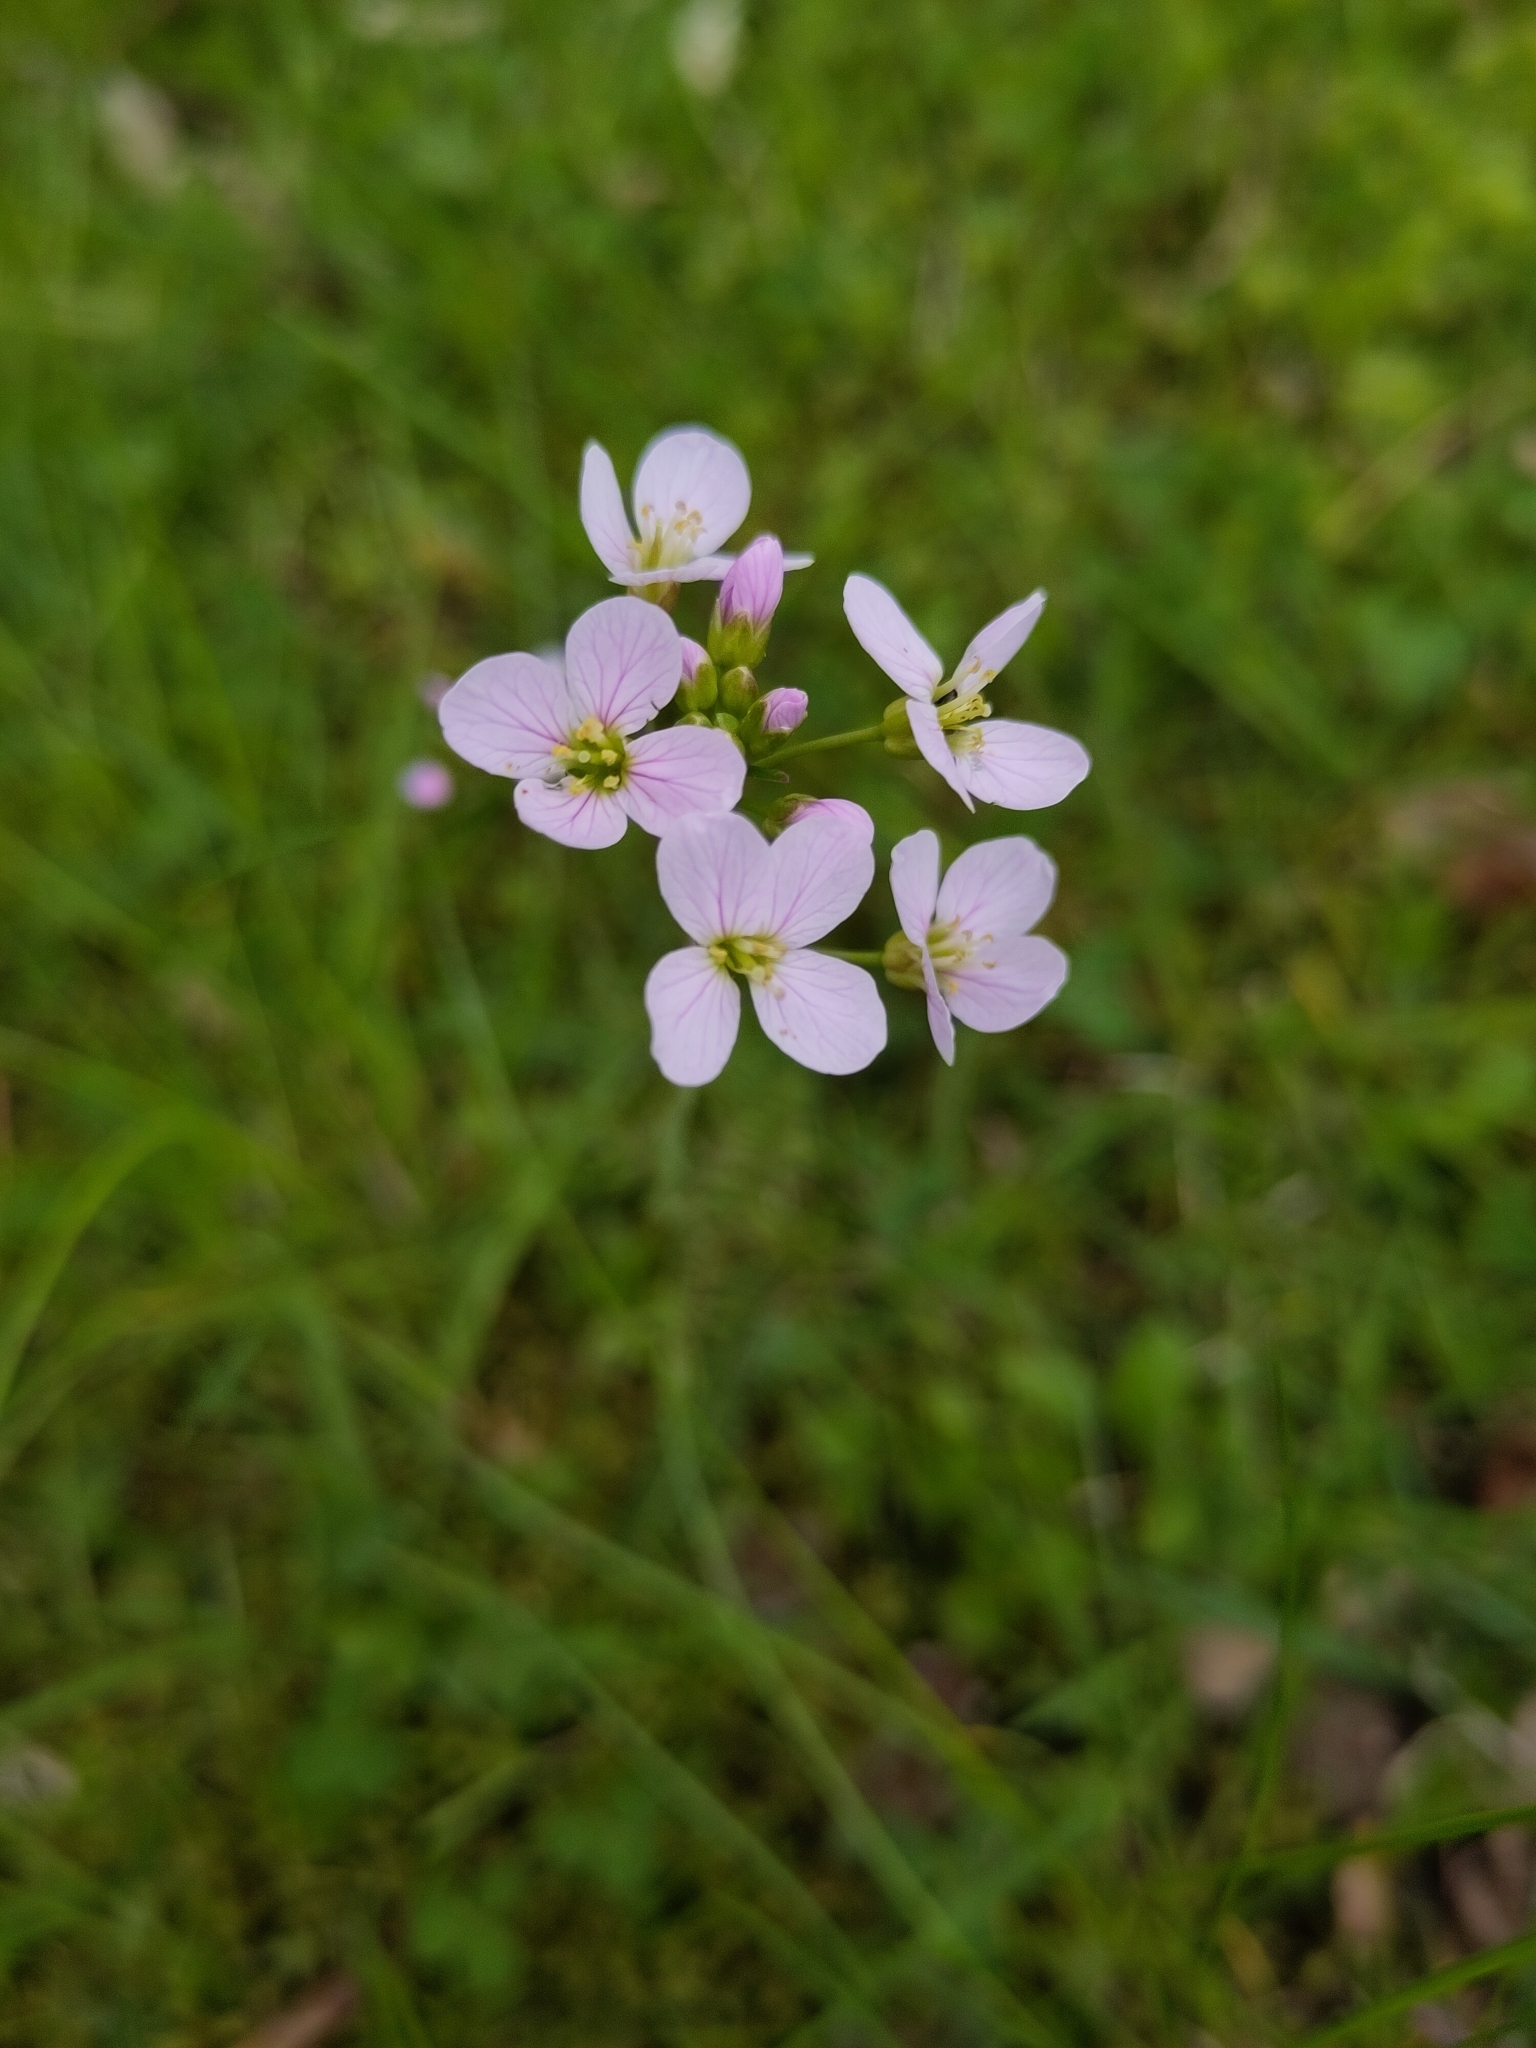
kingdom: Plantae
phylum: Tracheophyta
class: Magnoliopsida
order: Brassicales
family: Brassicaceae
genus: Cardamine
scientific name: Cardamine pratensis
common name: Cuckoo flower
